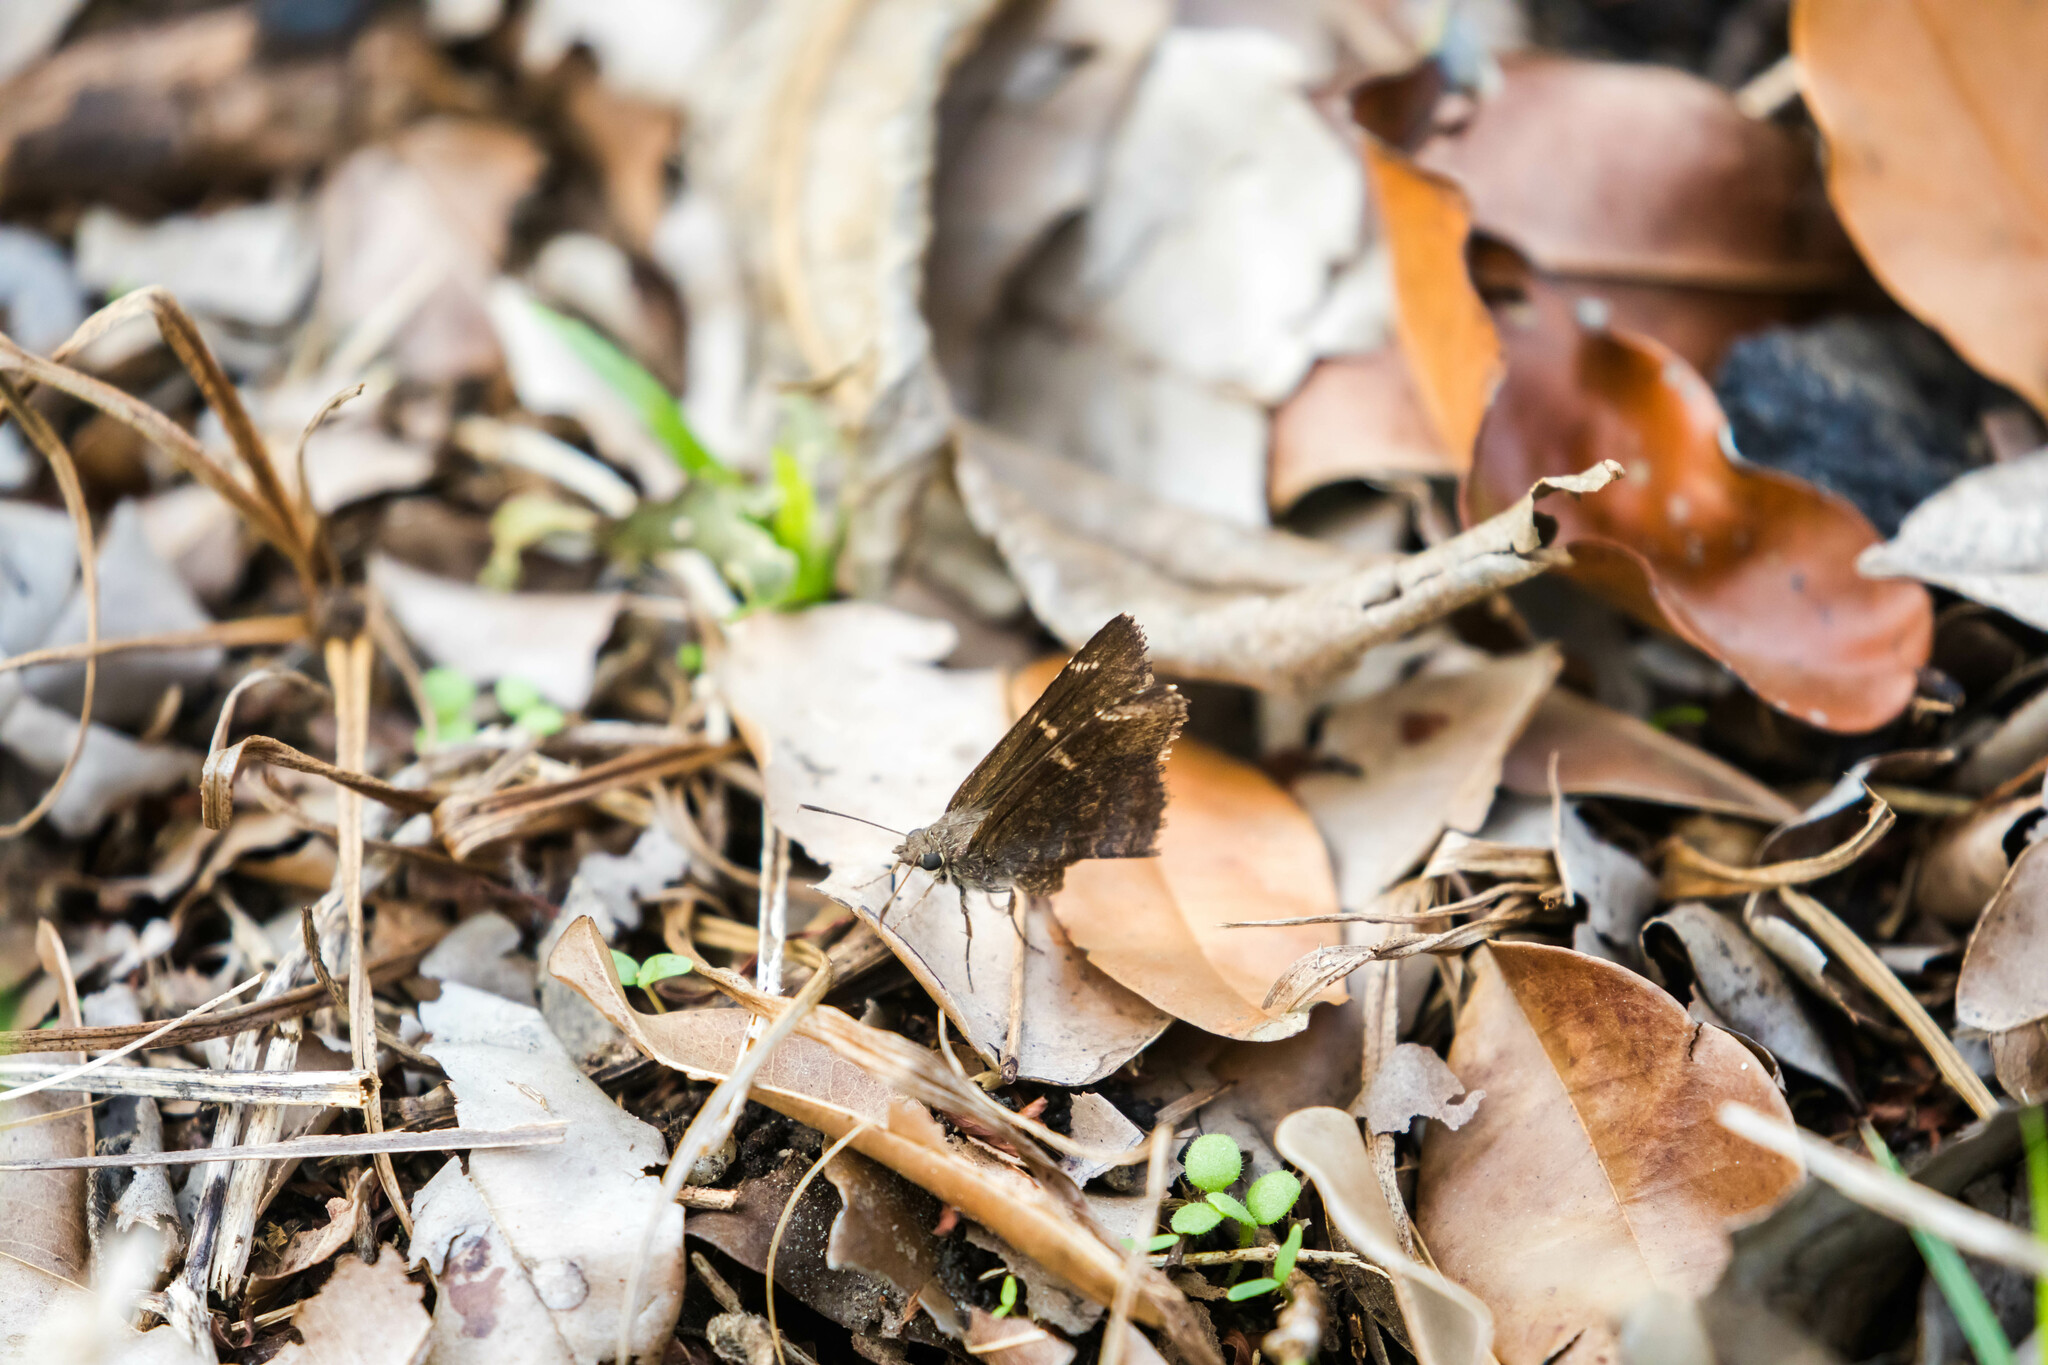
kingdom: Animalia
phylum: Arthropoda
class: Insecta
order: Lepidoptera
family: Hesperiidae
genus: Caicella
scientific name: Caicella calchas
